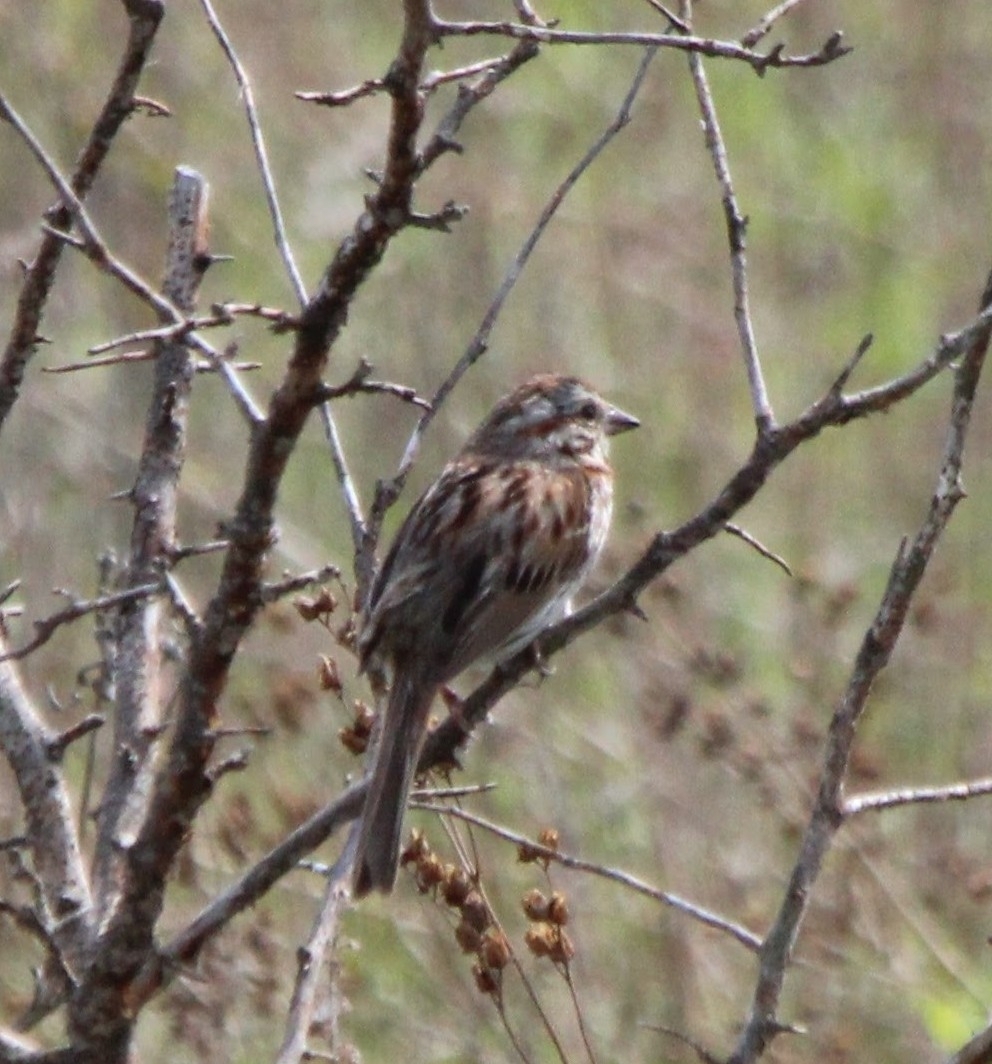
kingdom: Animalia
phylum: Chordata
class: Aves
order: Passeriformes
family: Passerellidae
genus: Melospiza
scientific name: Melospiza melodia
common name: Song sparrow
